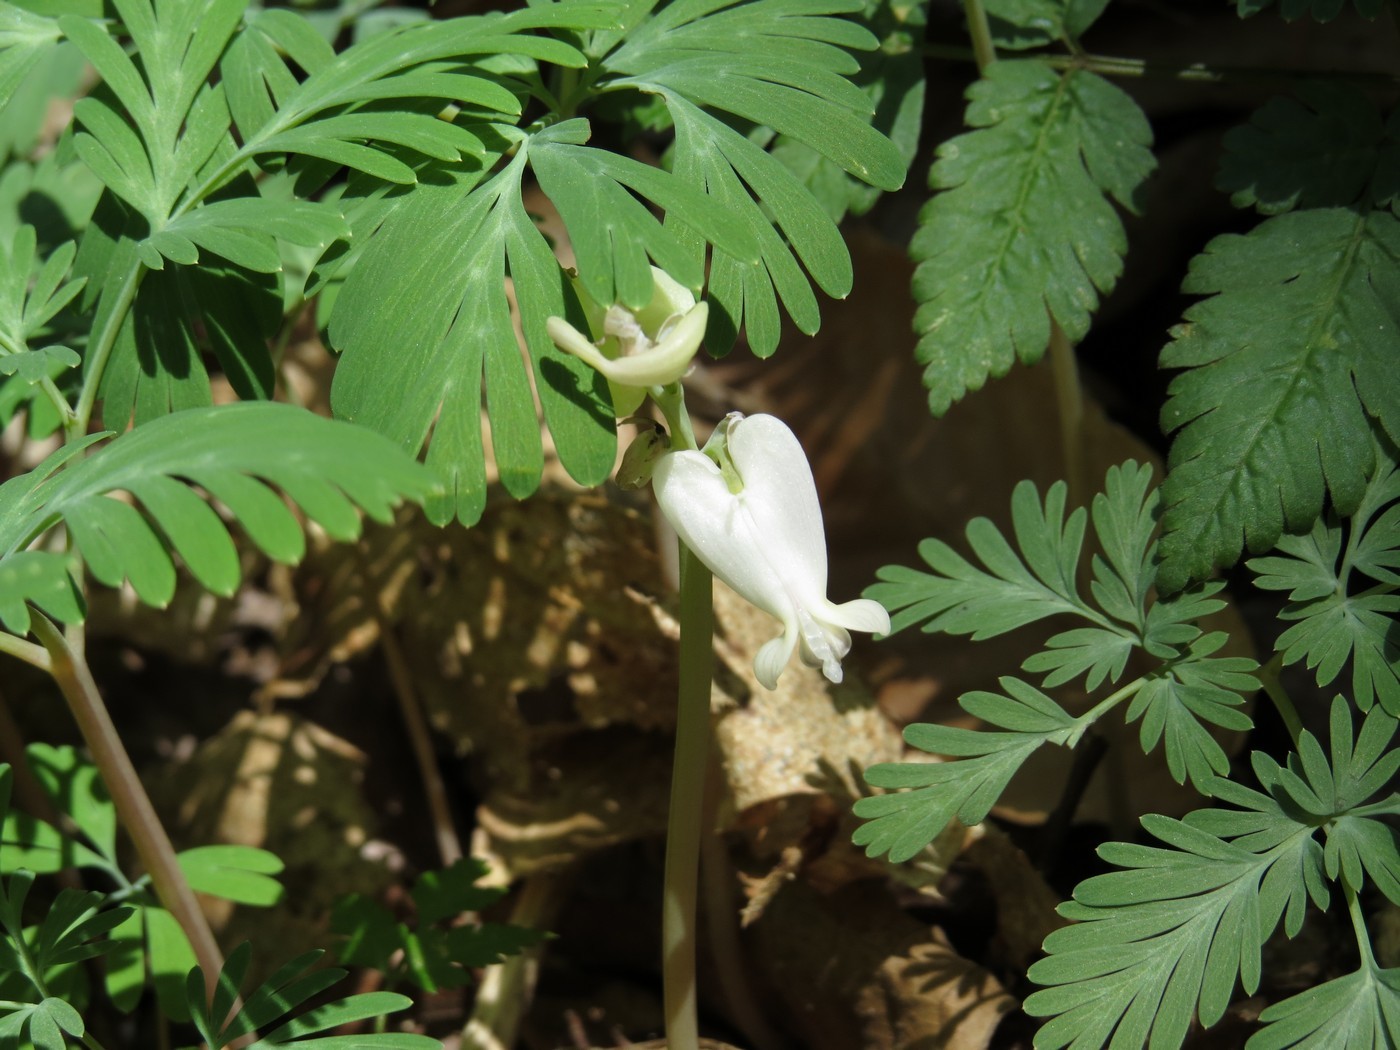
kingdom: Plantae
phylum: Tracheophyta
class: Magnoliopsida
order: Ranunculales
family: Papaveraceae
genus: Dicentra
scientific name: Dicentra canadensis
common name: Squirrel-corn
